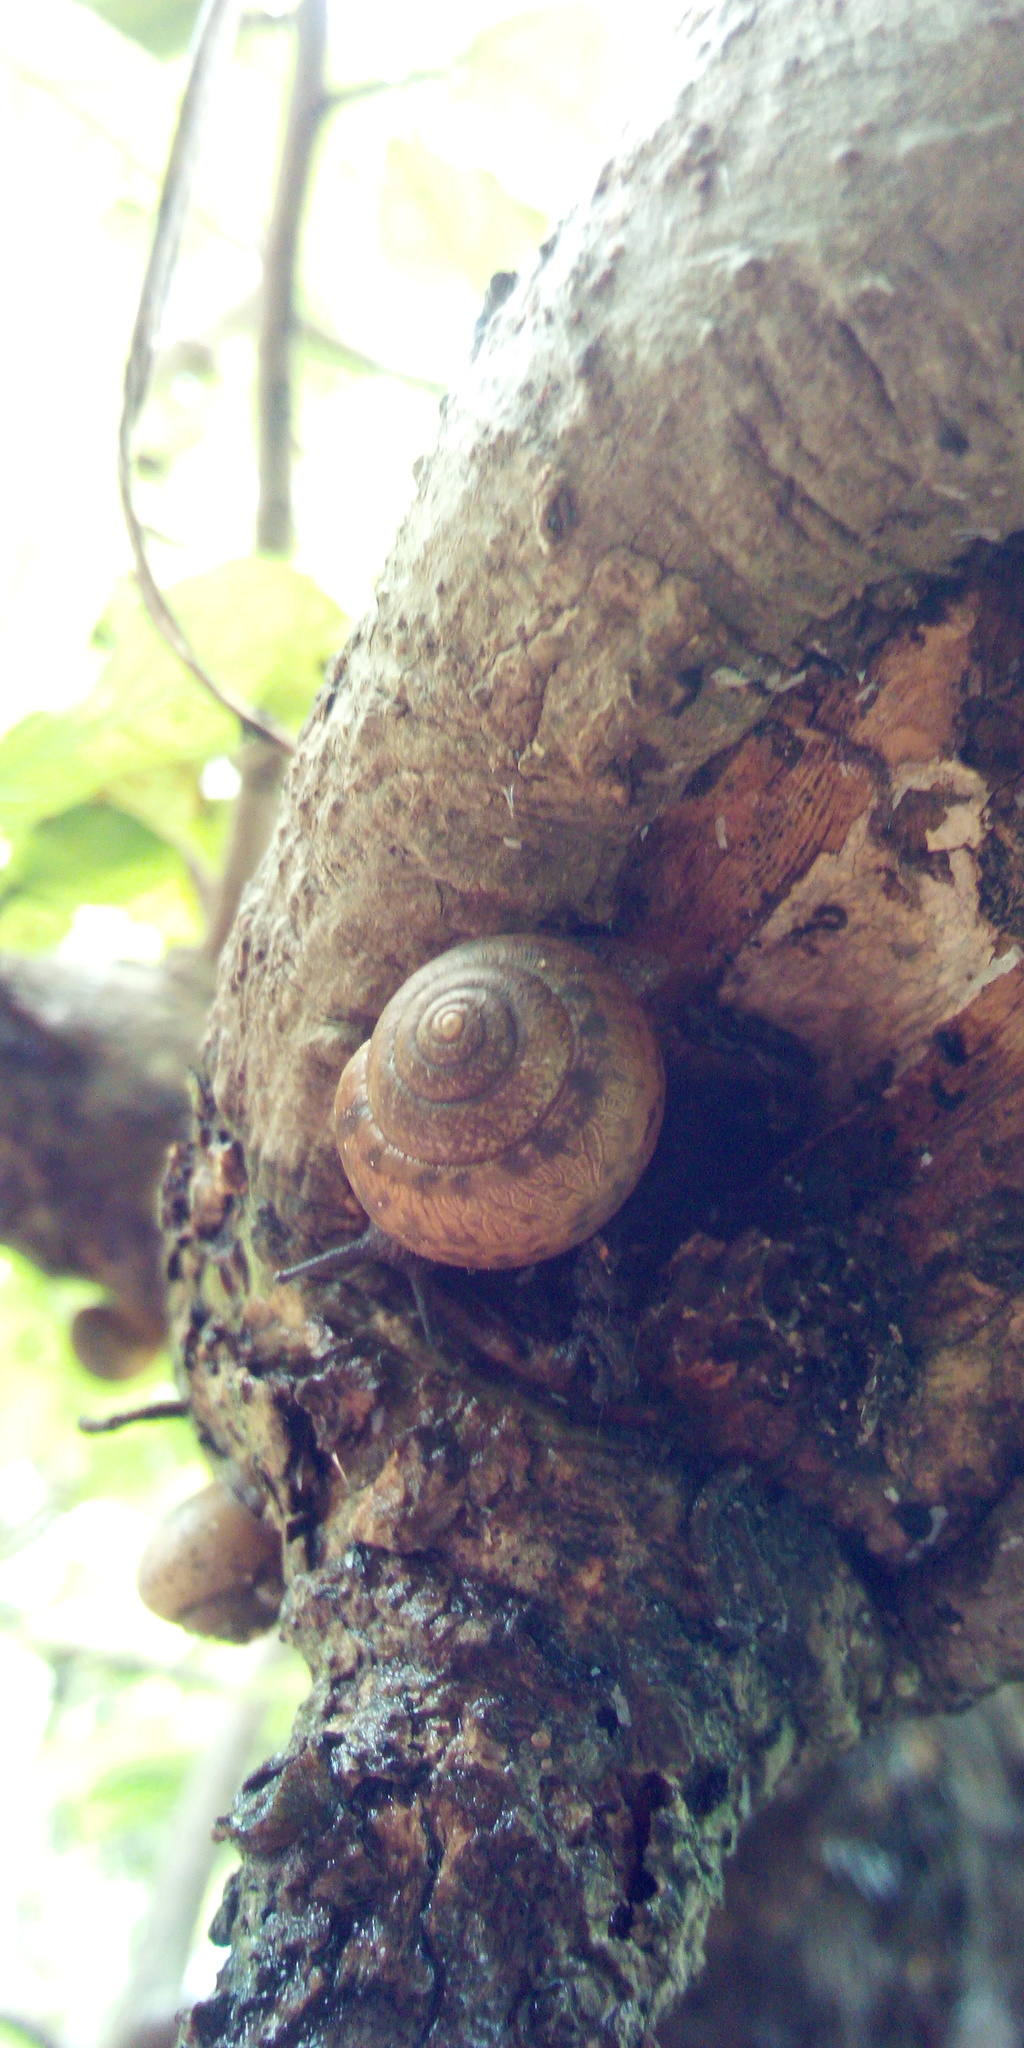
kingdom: Animalia
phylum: Mollusca
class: Gastropoda
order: Stylommatophora
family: Camaenidae
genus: Acusta
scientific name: Acusta tourannensis
